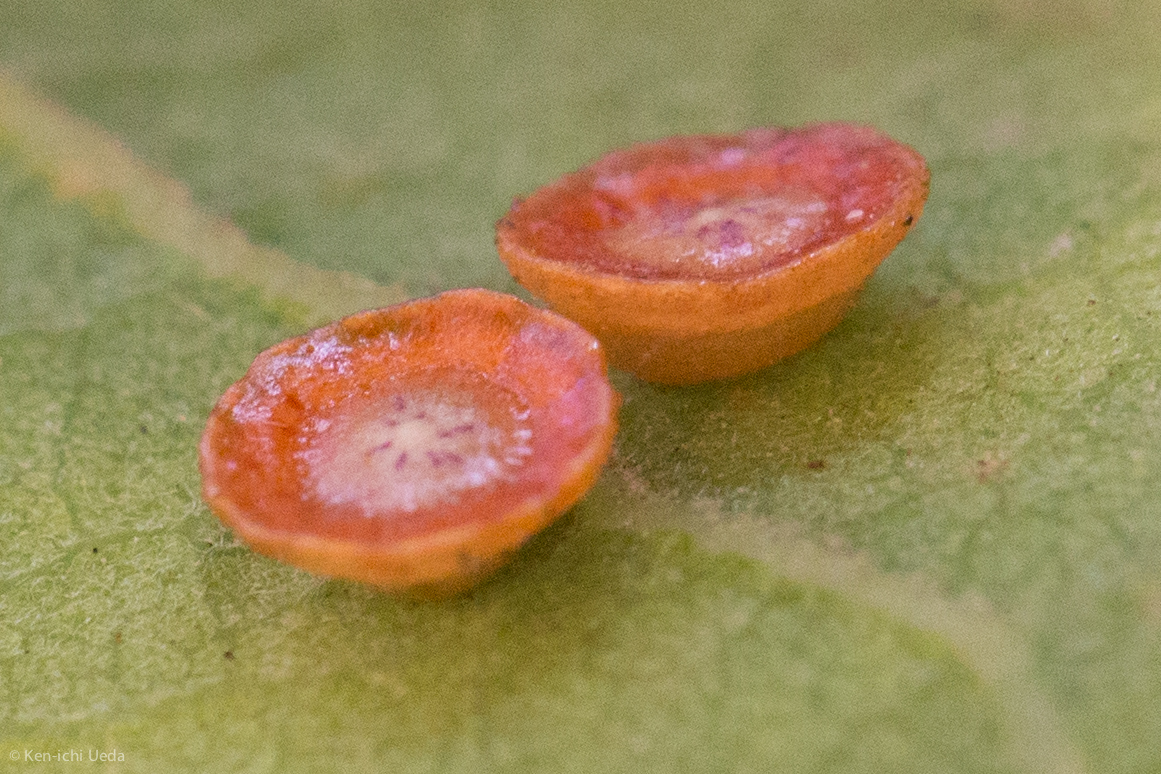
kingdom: Animalia
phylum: Arthropoda
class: Insecta
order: Hymenoptera
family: Cynipidae
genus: Andricus
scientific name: Andricus
